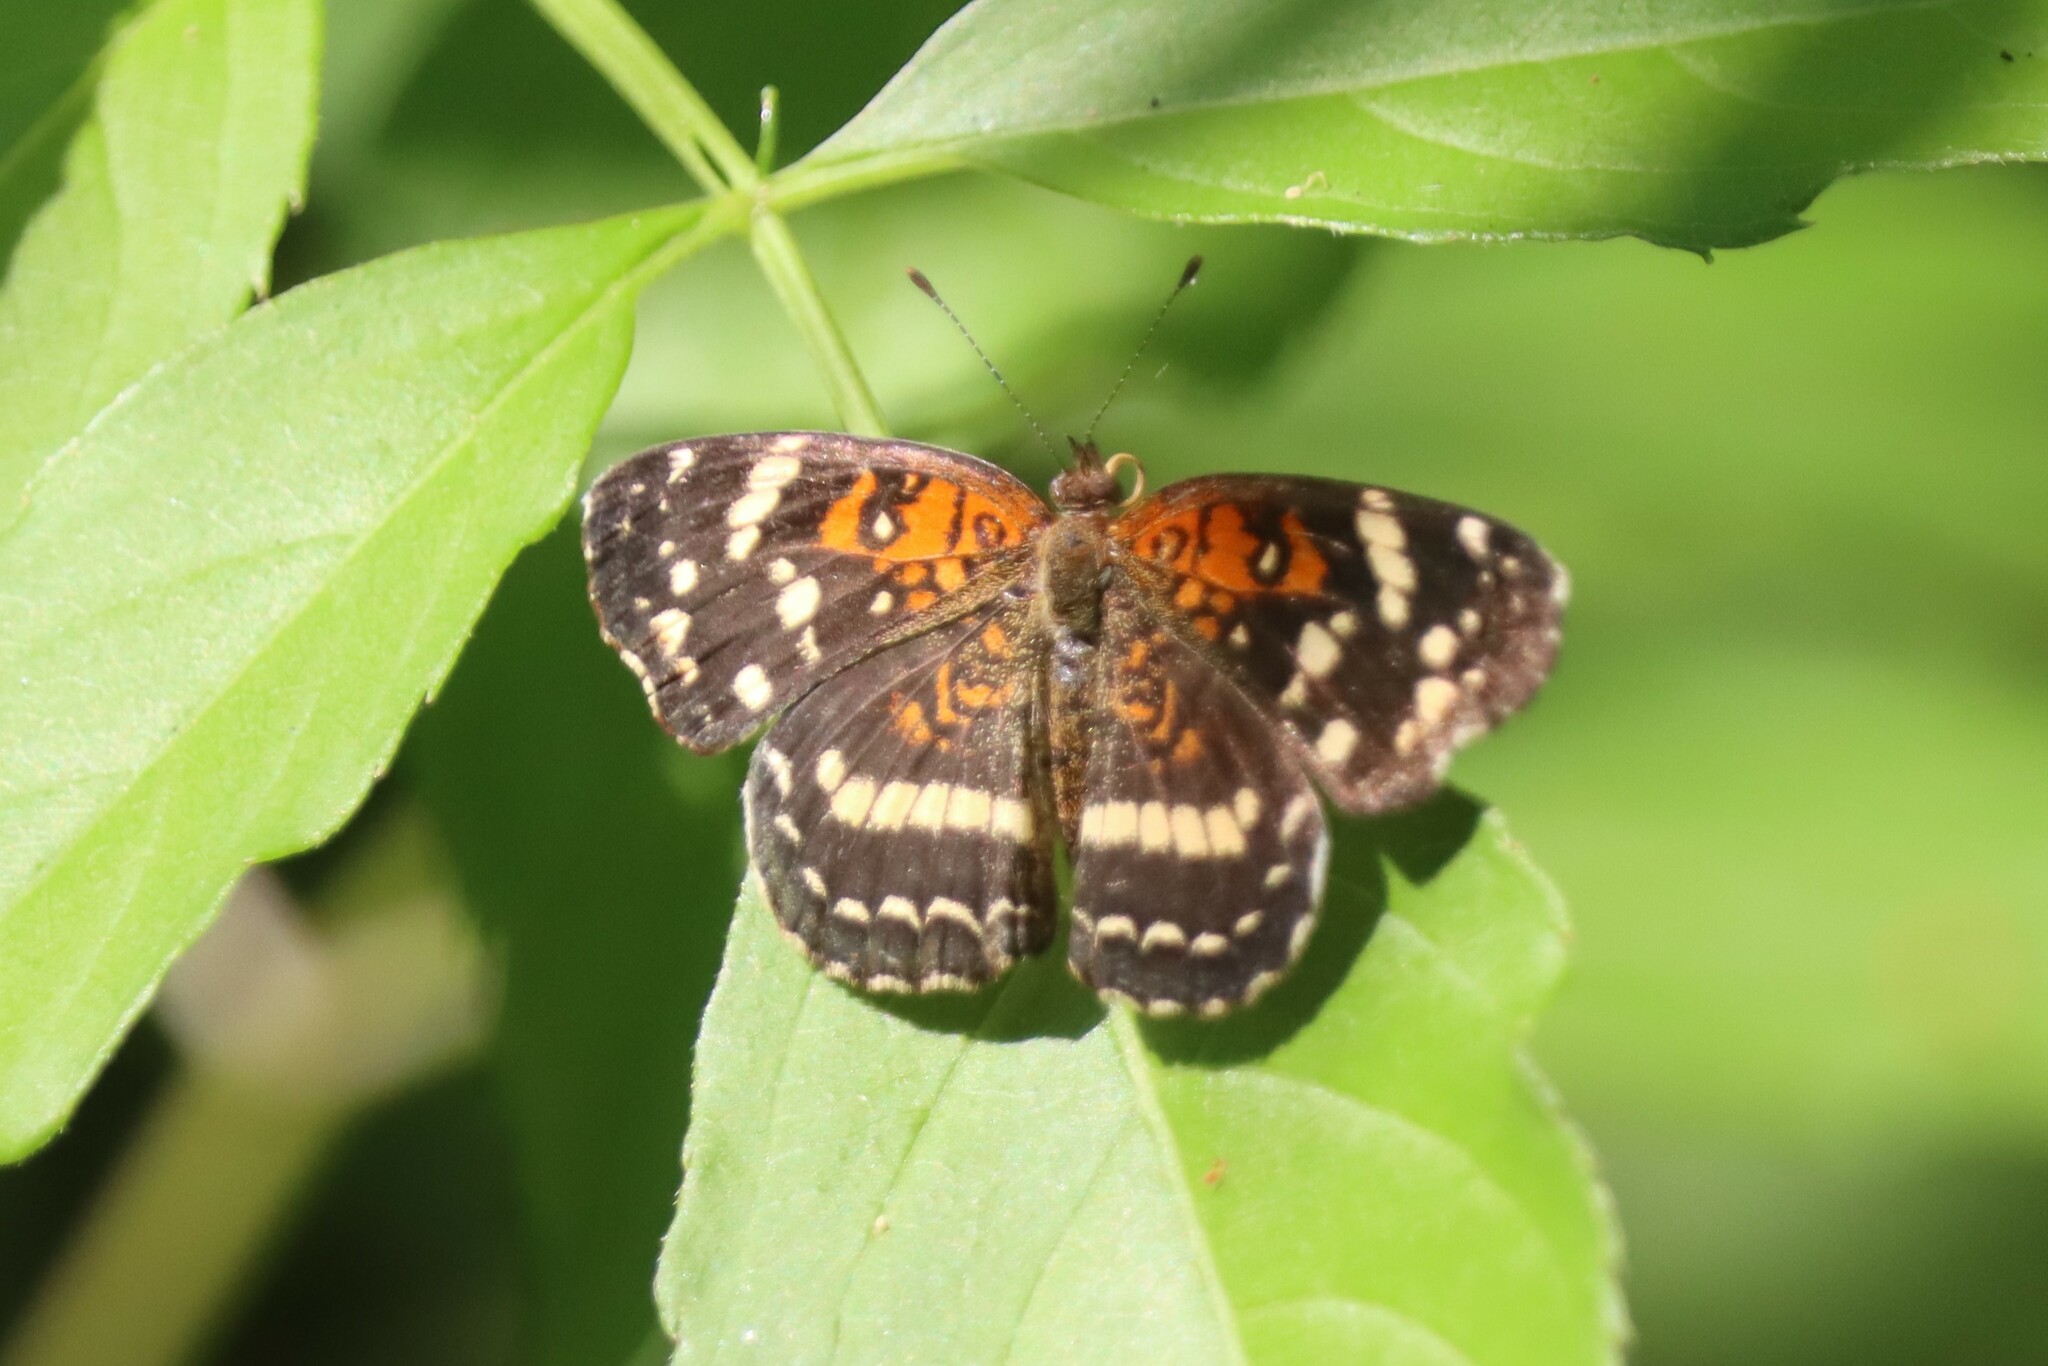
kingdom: Animalia
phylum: Arthropoda
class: Insecta
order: Lepidoptera
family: Nymphalidae
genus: Anthanassa
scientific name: Anthanassa taxana
